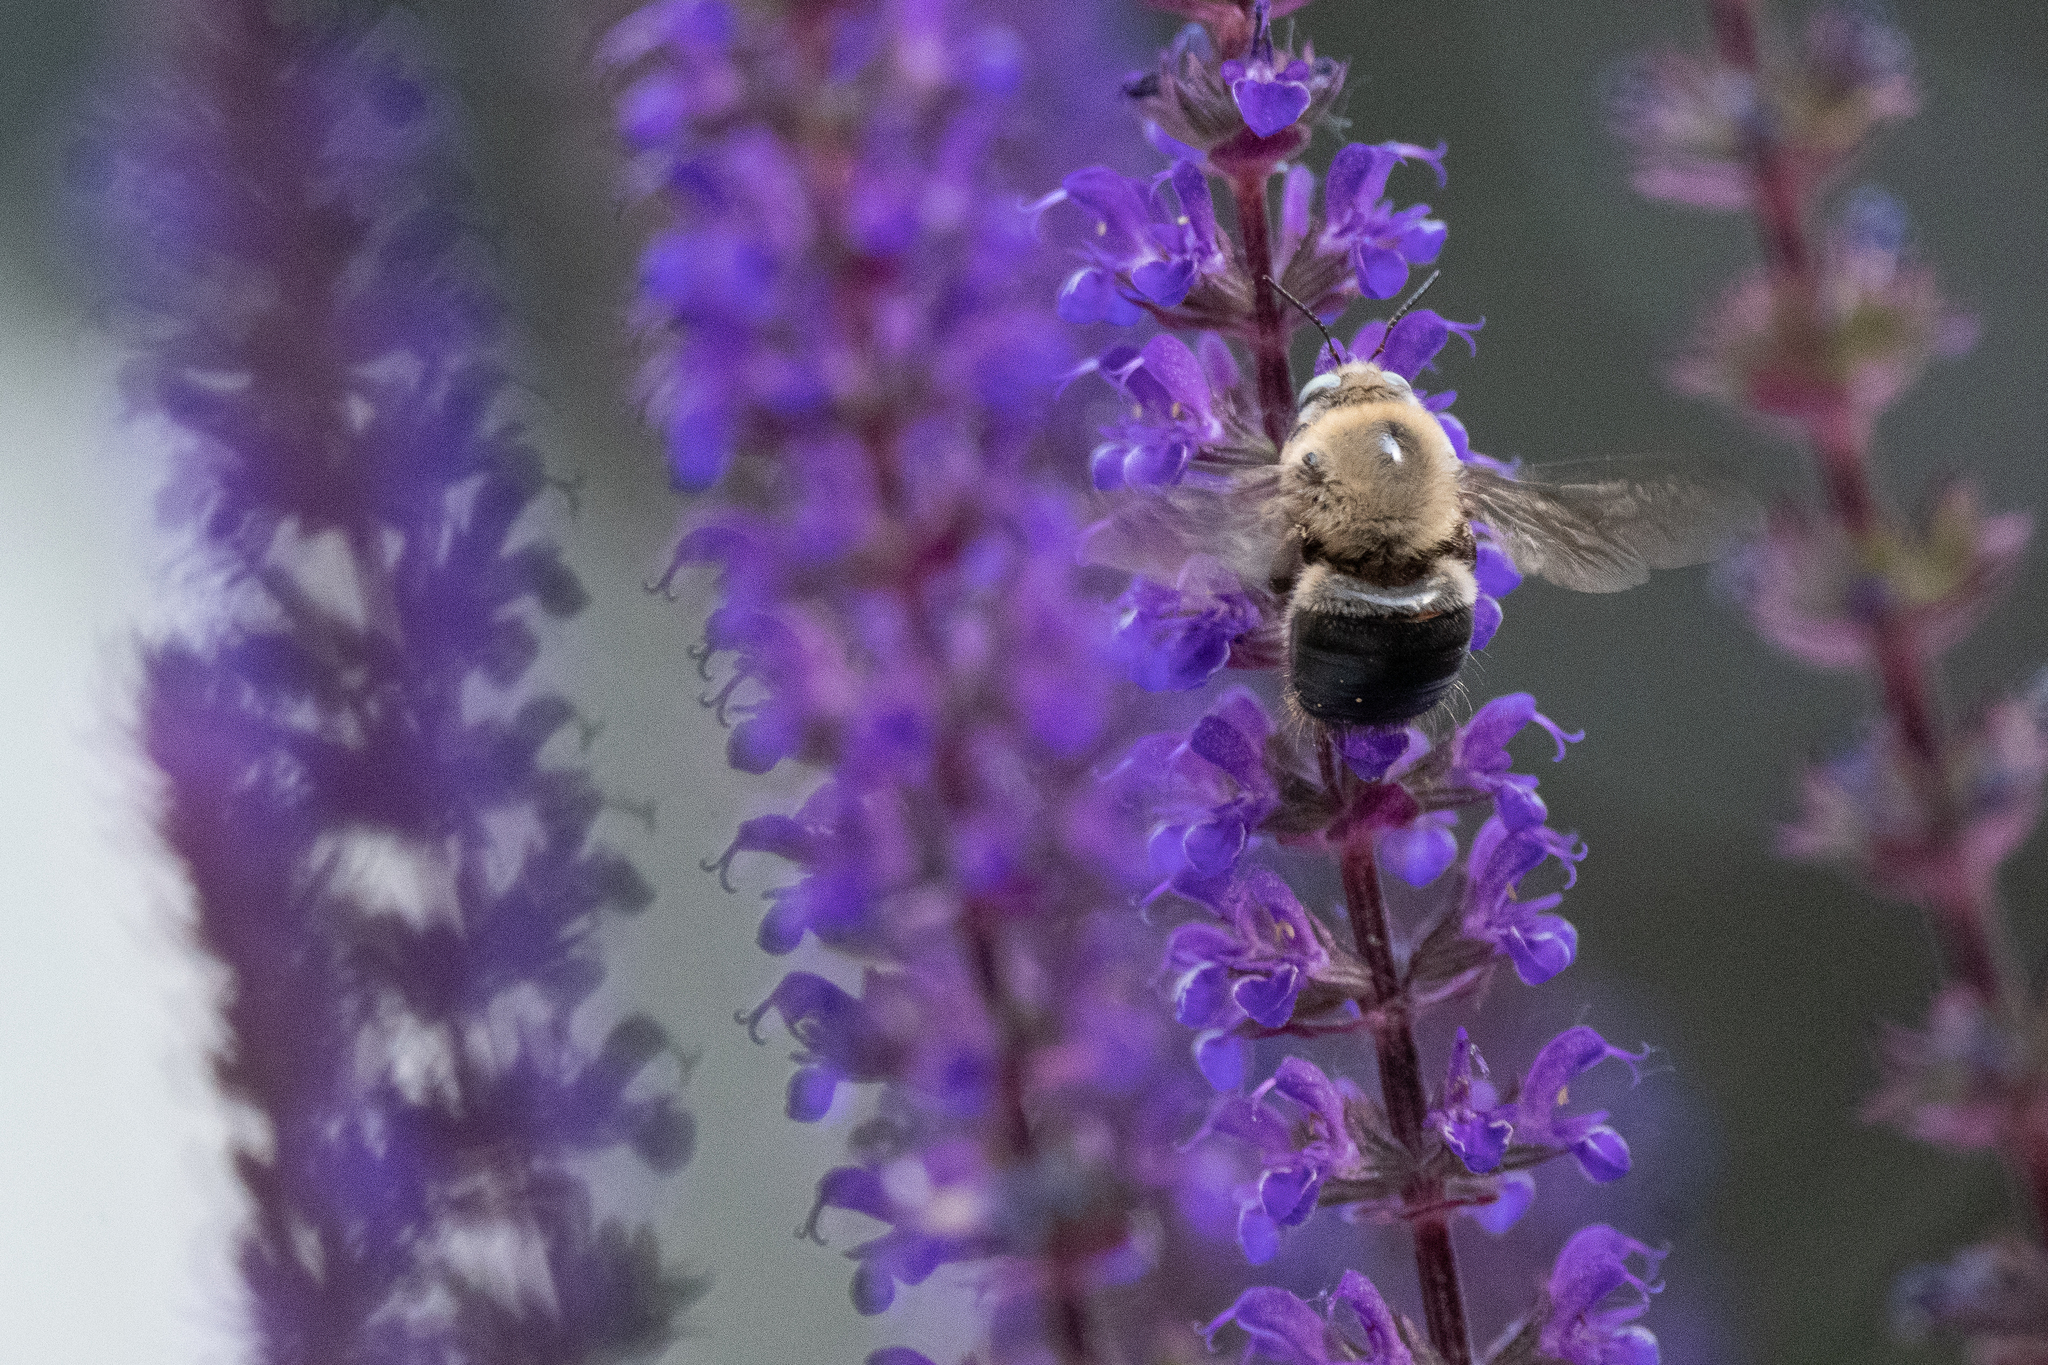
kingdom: Animalia
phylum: Arthropoda
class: Insecta
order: Hymenoptera
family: Apidae
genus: Xylocopa
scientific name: Xylocopa tabaniformis
